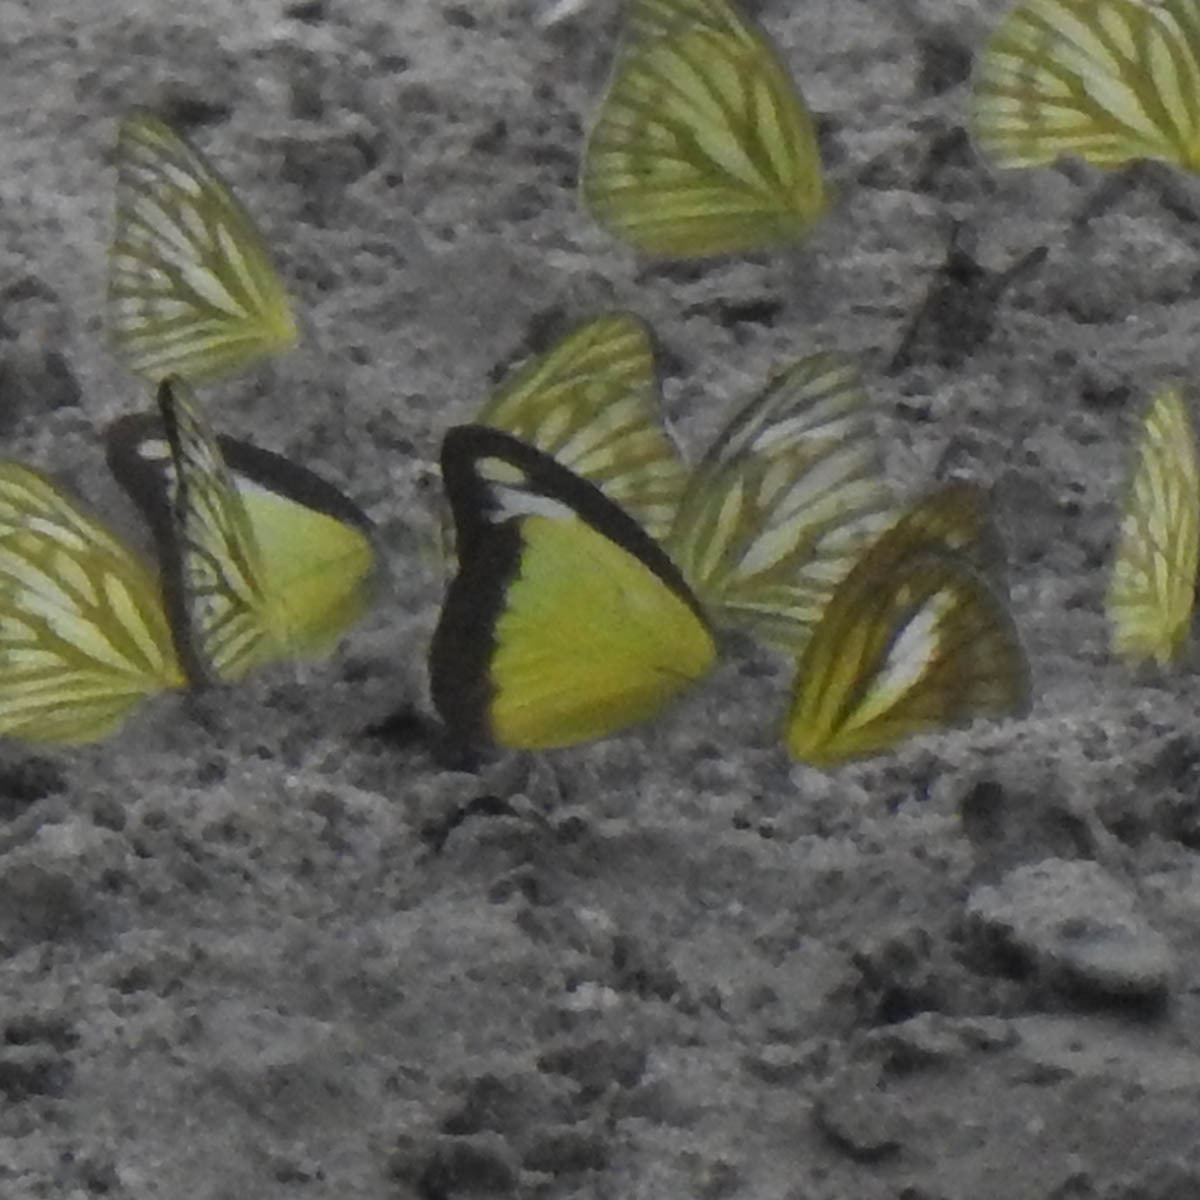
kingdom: Animalia
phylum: Arthropoda
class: Insecta
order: Lepidoptera
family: Pieridae
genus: Appias
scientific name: Appias lyncida
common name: Chocolate albatross
